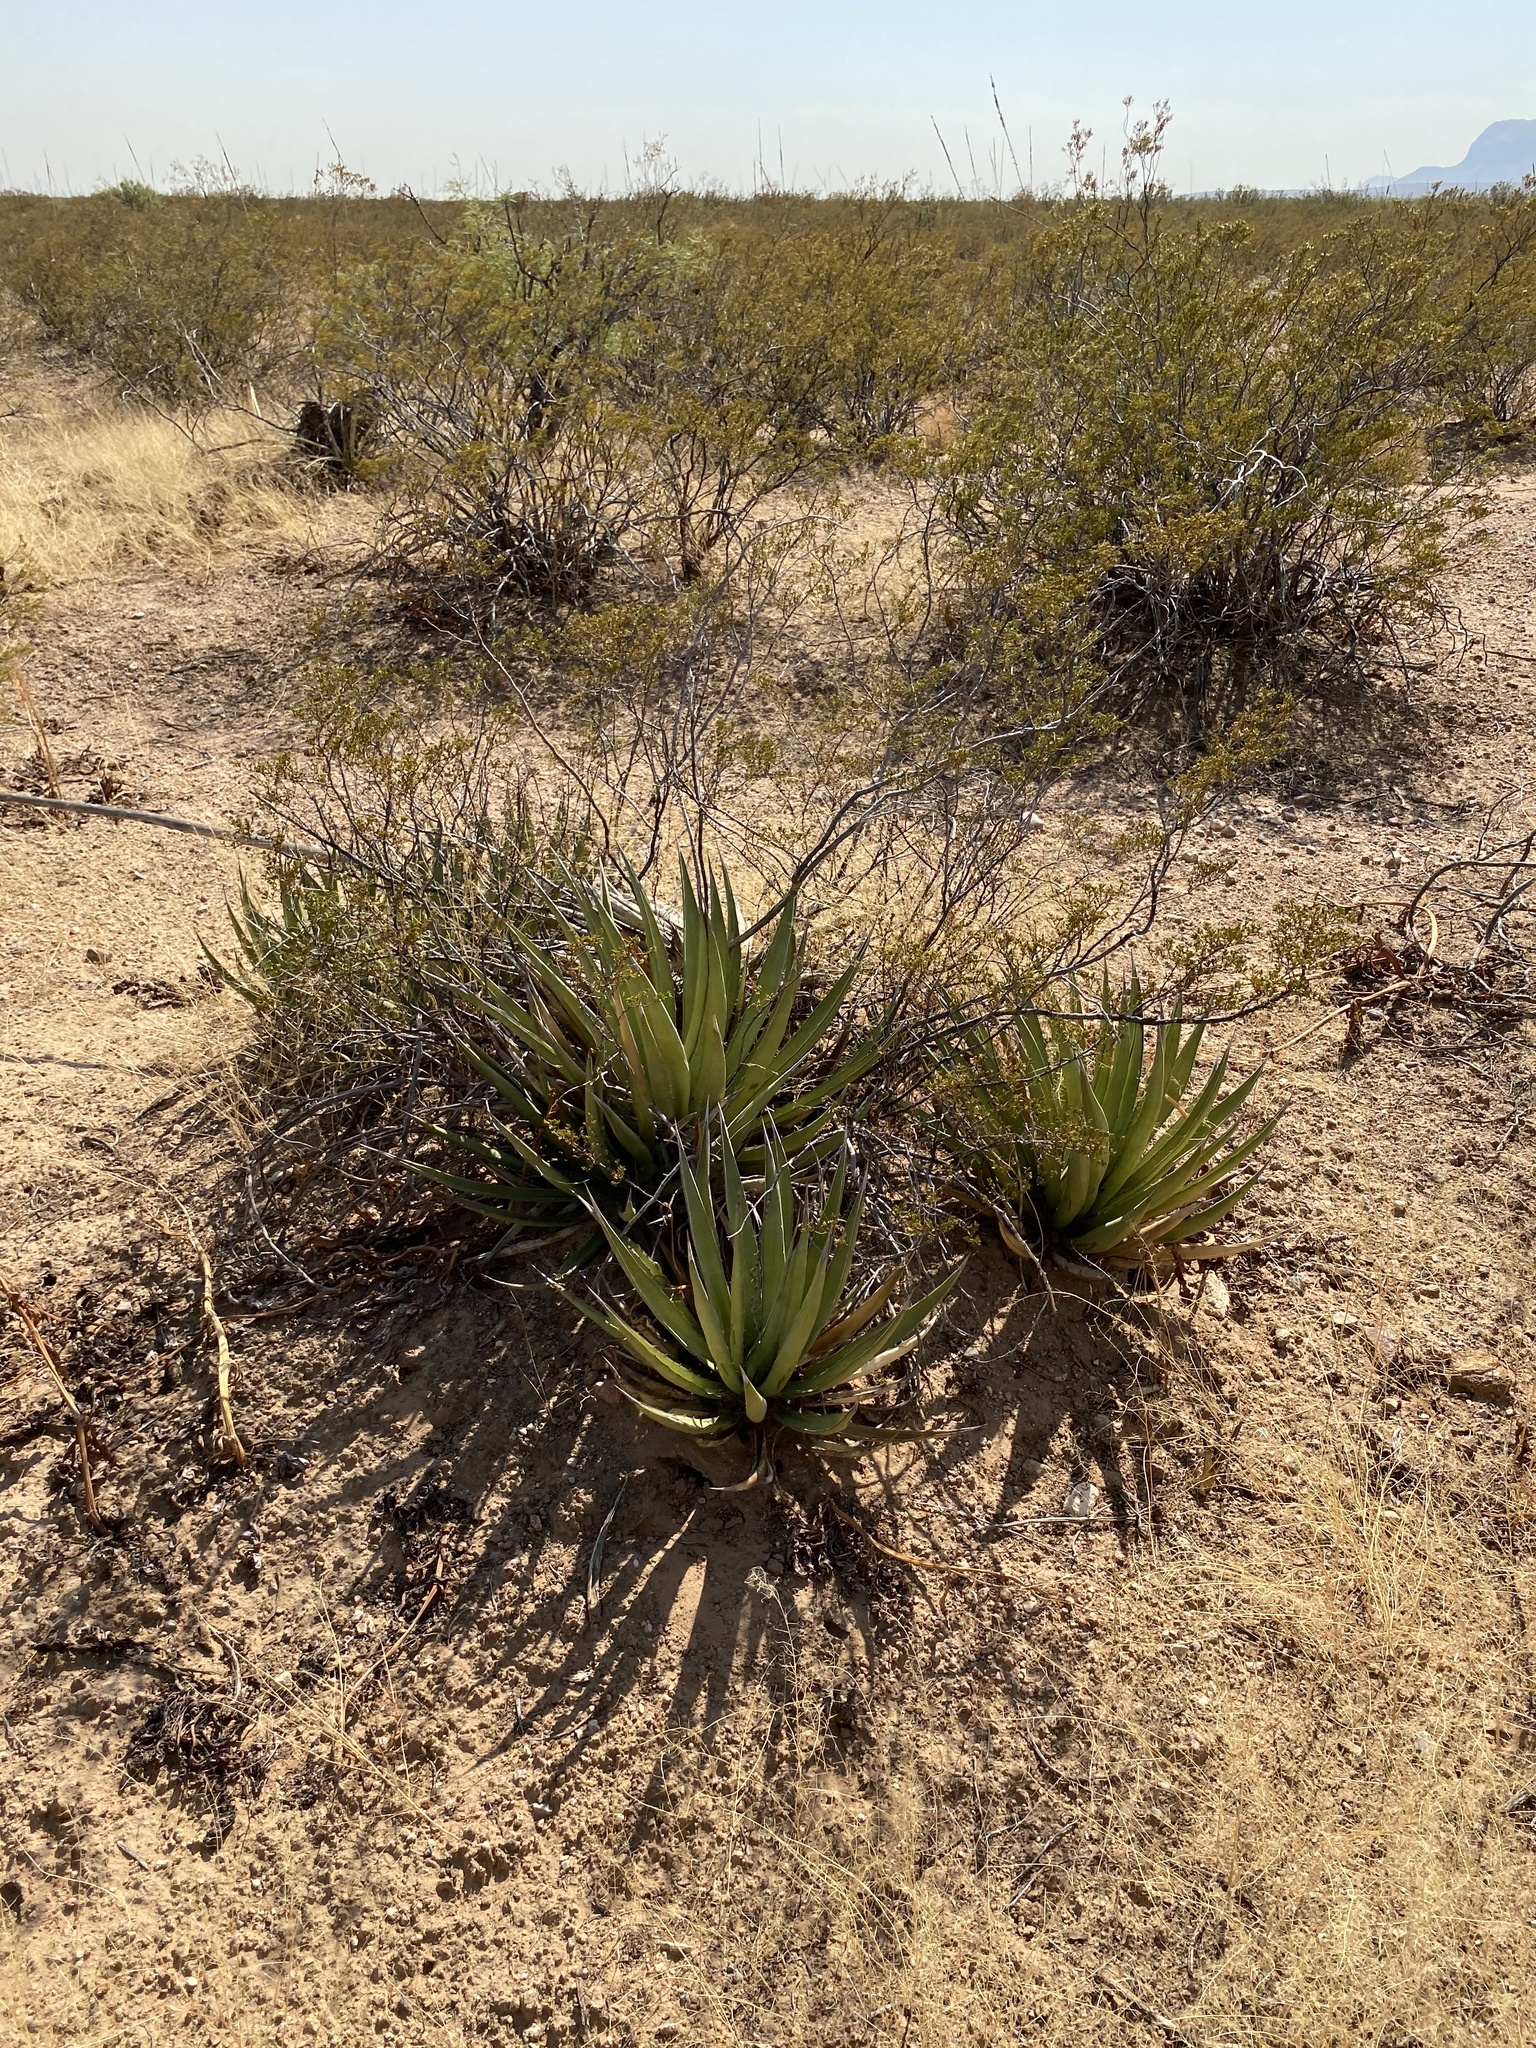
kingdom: Plantae
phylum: Tracheophyta
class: Liliopsida
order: Asparagales
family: Asparagaceae
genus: Agave
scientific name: Agave lechuguilla
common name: Lecheguilla agave
